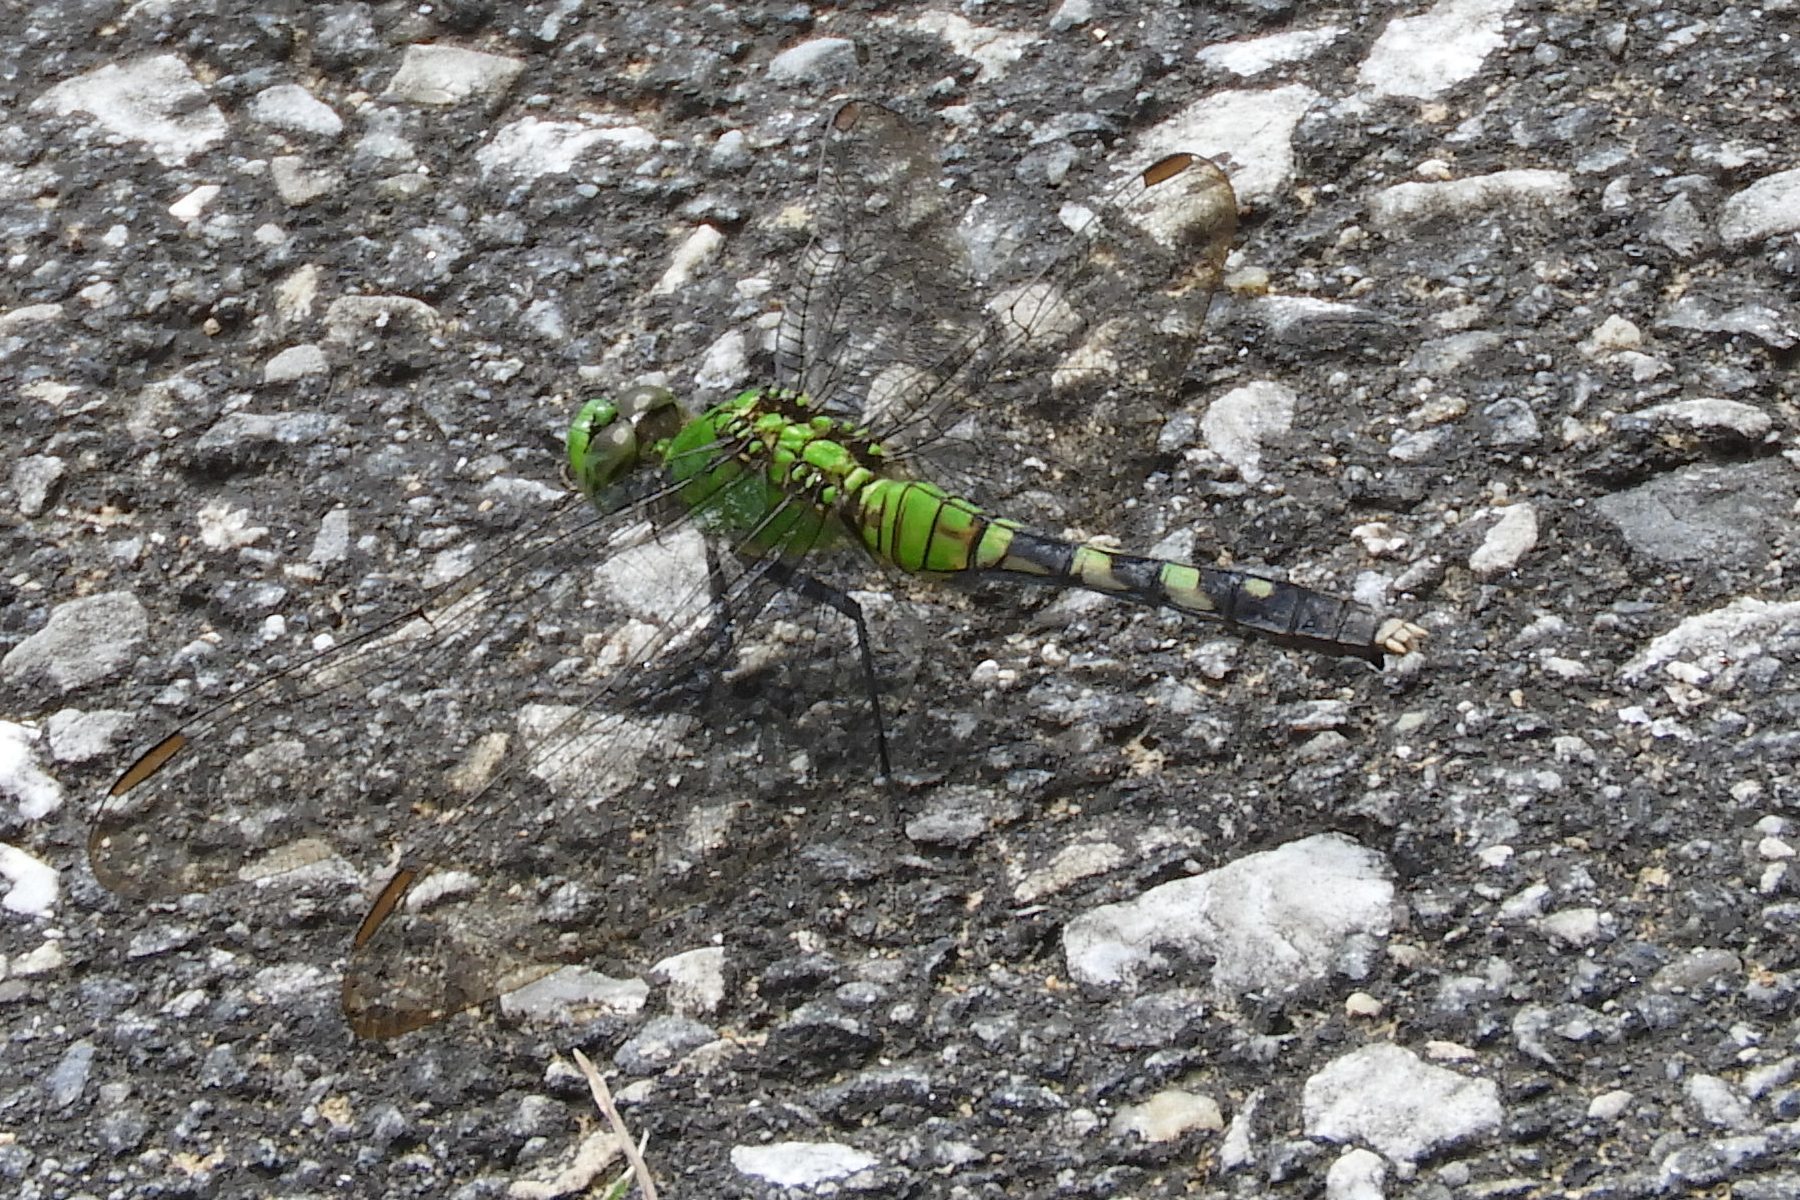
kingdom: Animalia
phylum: Arthropoda
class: Insecta
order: Odonata
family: Libellulidae
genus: Erythemis
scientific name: Erythemis simplicicollis
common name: Eastern pondhawk
